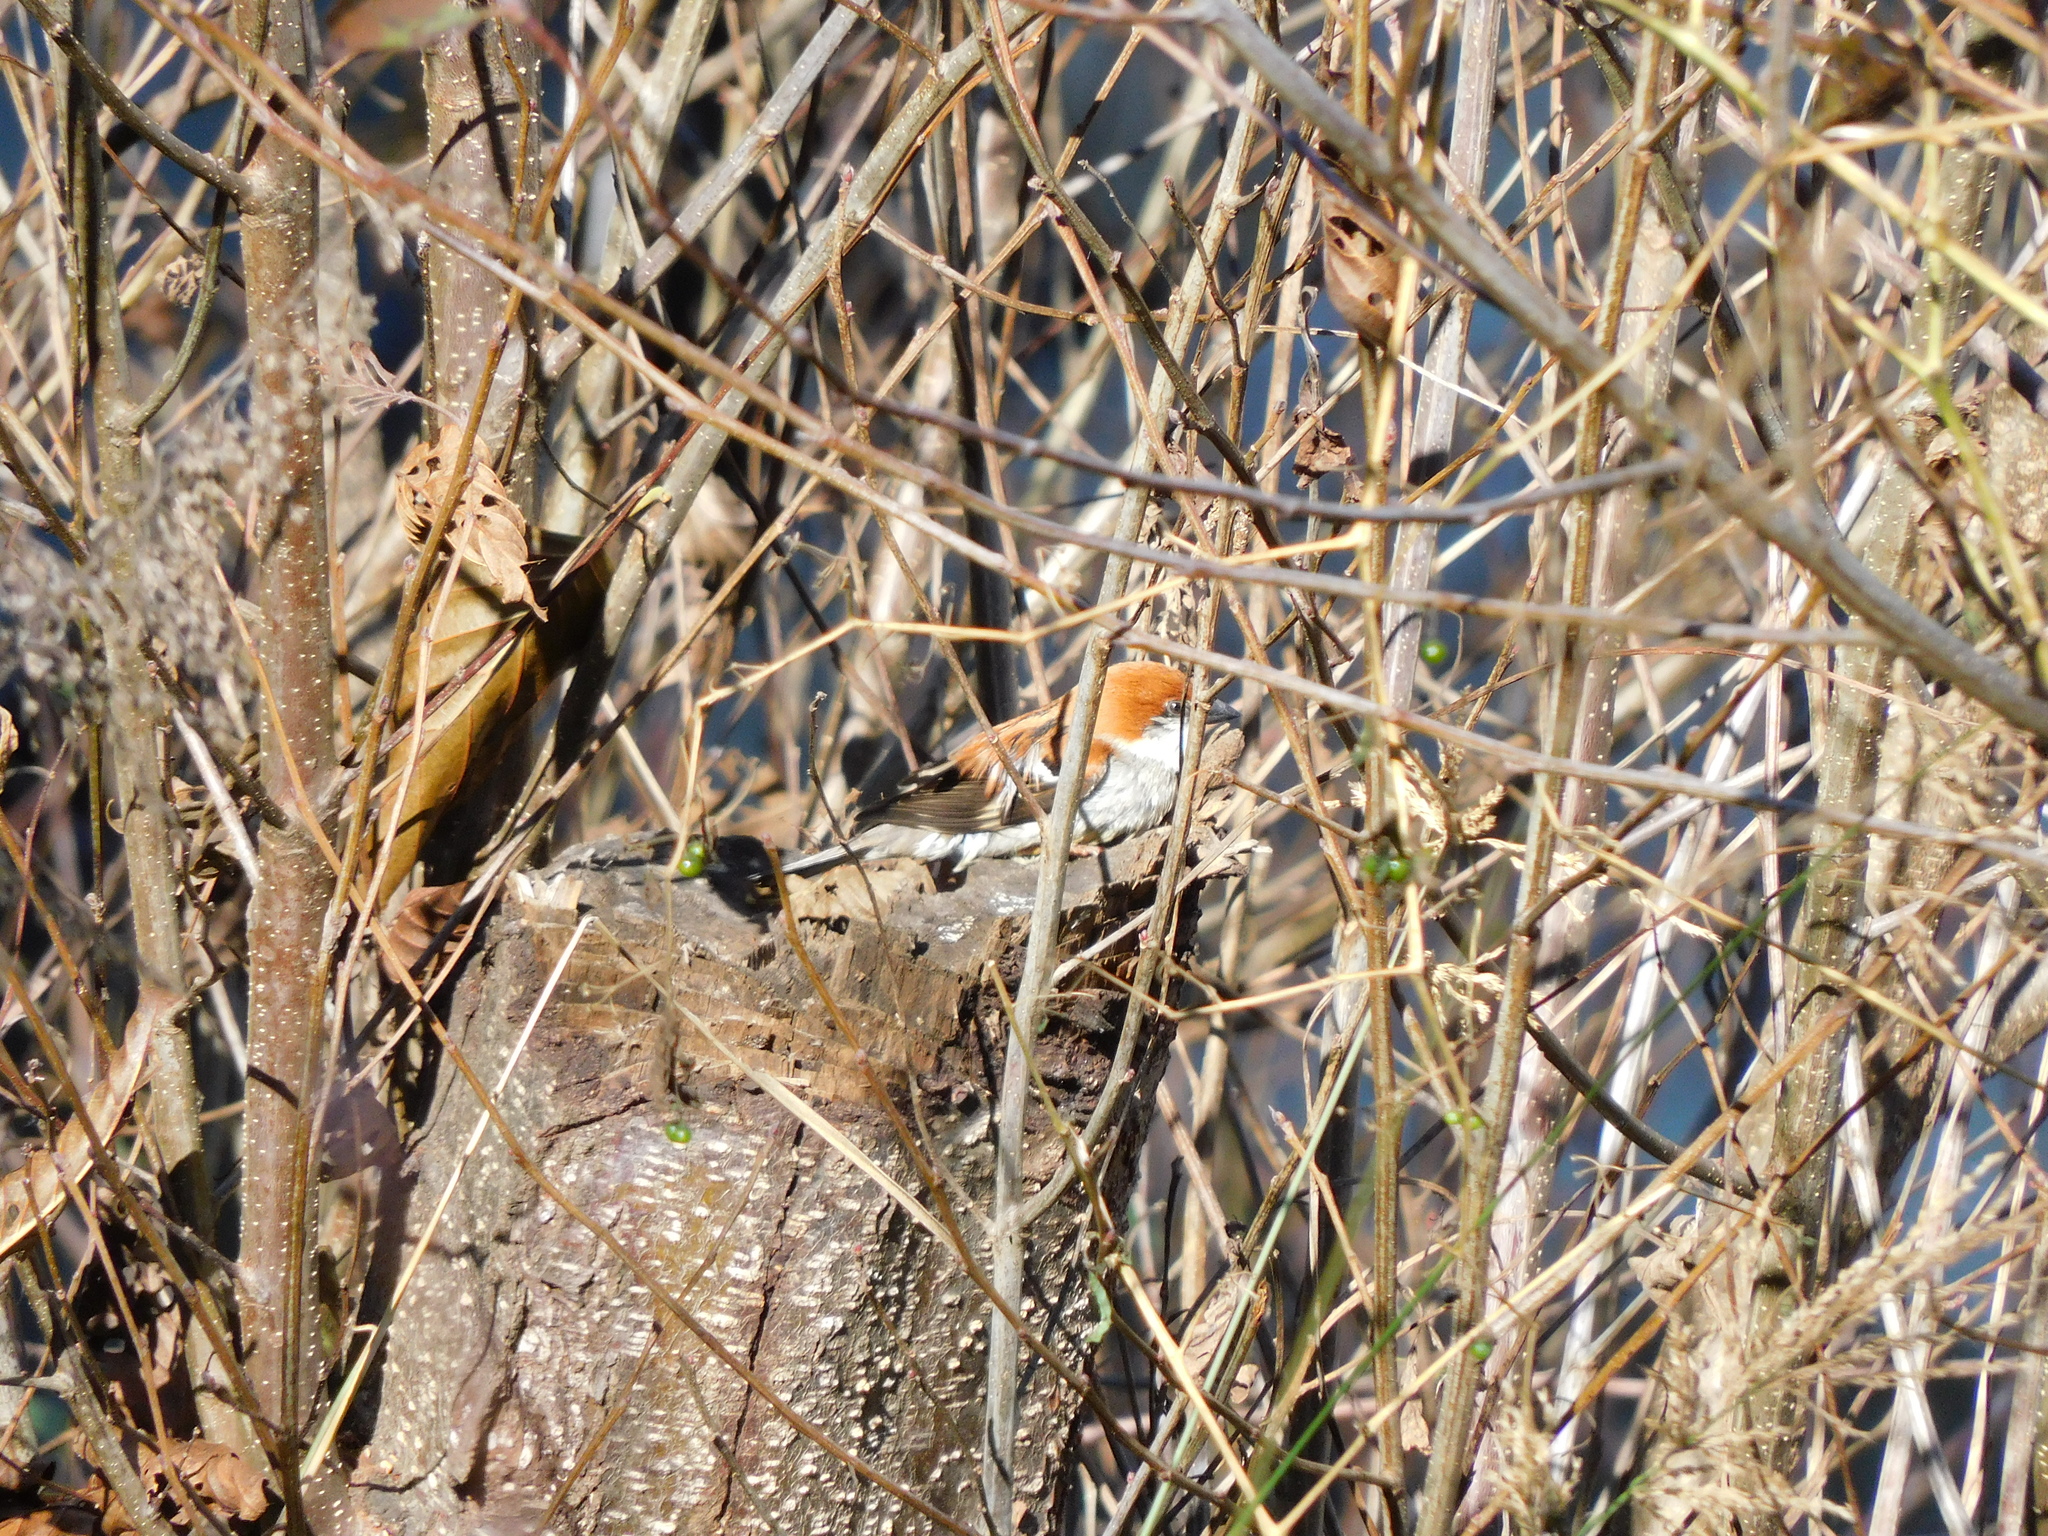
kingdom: Animalia
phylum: Chordata
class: Aves
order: Passeriformes
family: Passeridae
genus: Passer
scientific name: Passer cinnamomeus
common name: Russet sparrow
